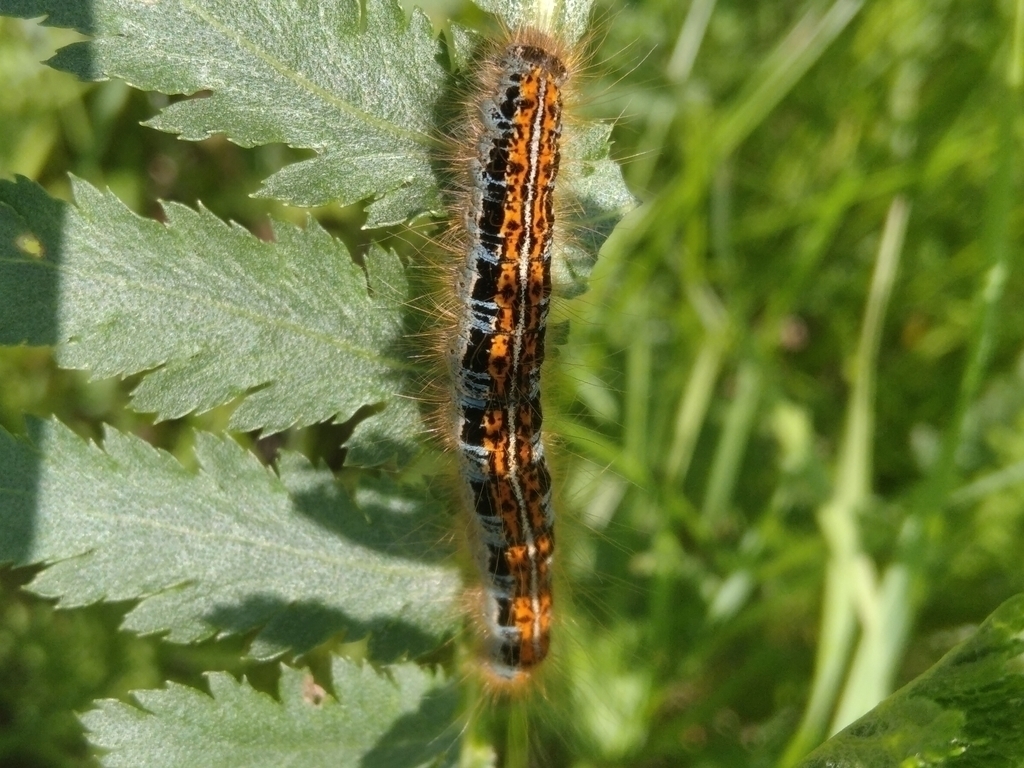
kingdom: Animalia
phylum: Arthropoda
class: Insecta
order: Lepidoptera
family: Lasiocampidae
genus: Malacosoma
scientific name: Malacosoma castrense
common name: Ground lackey
